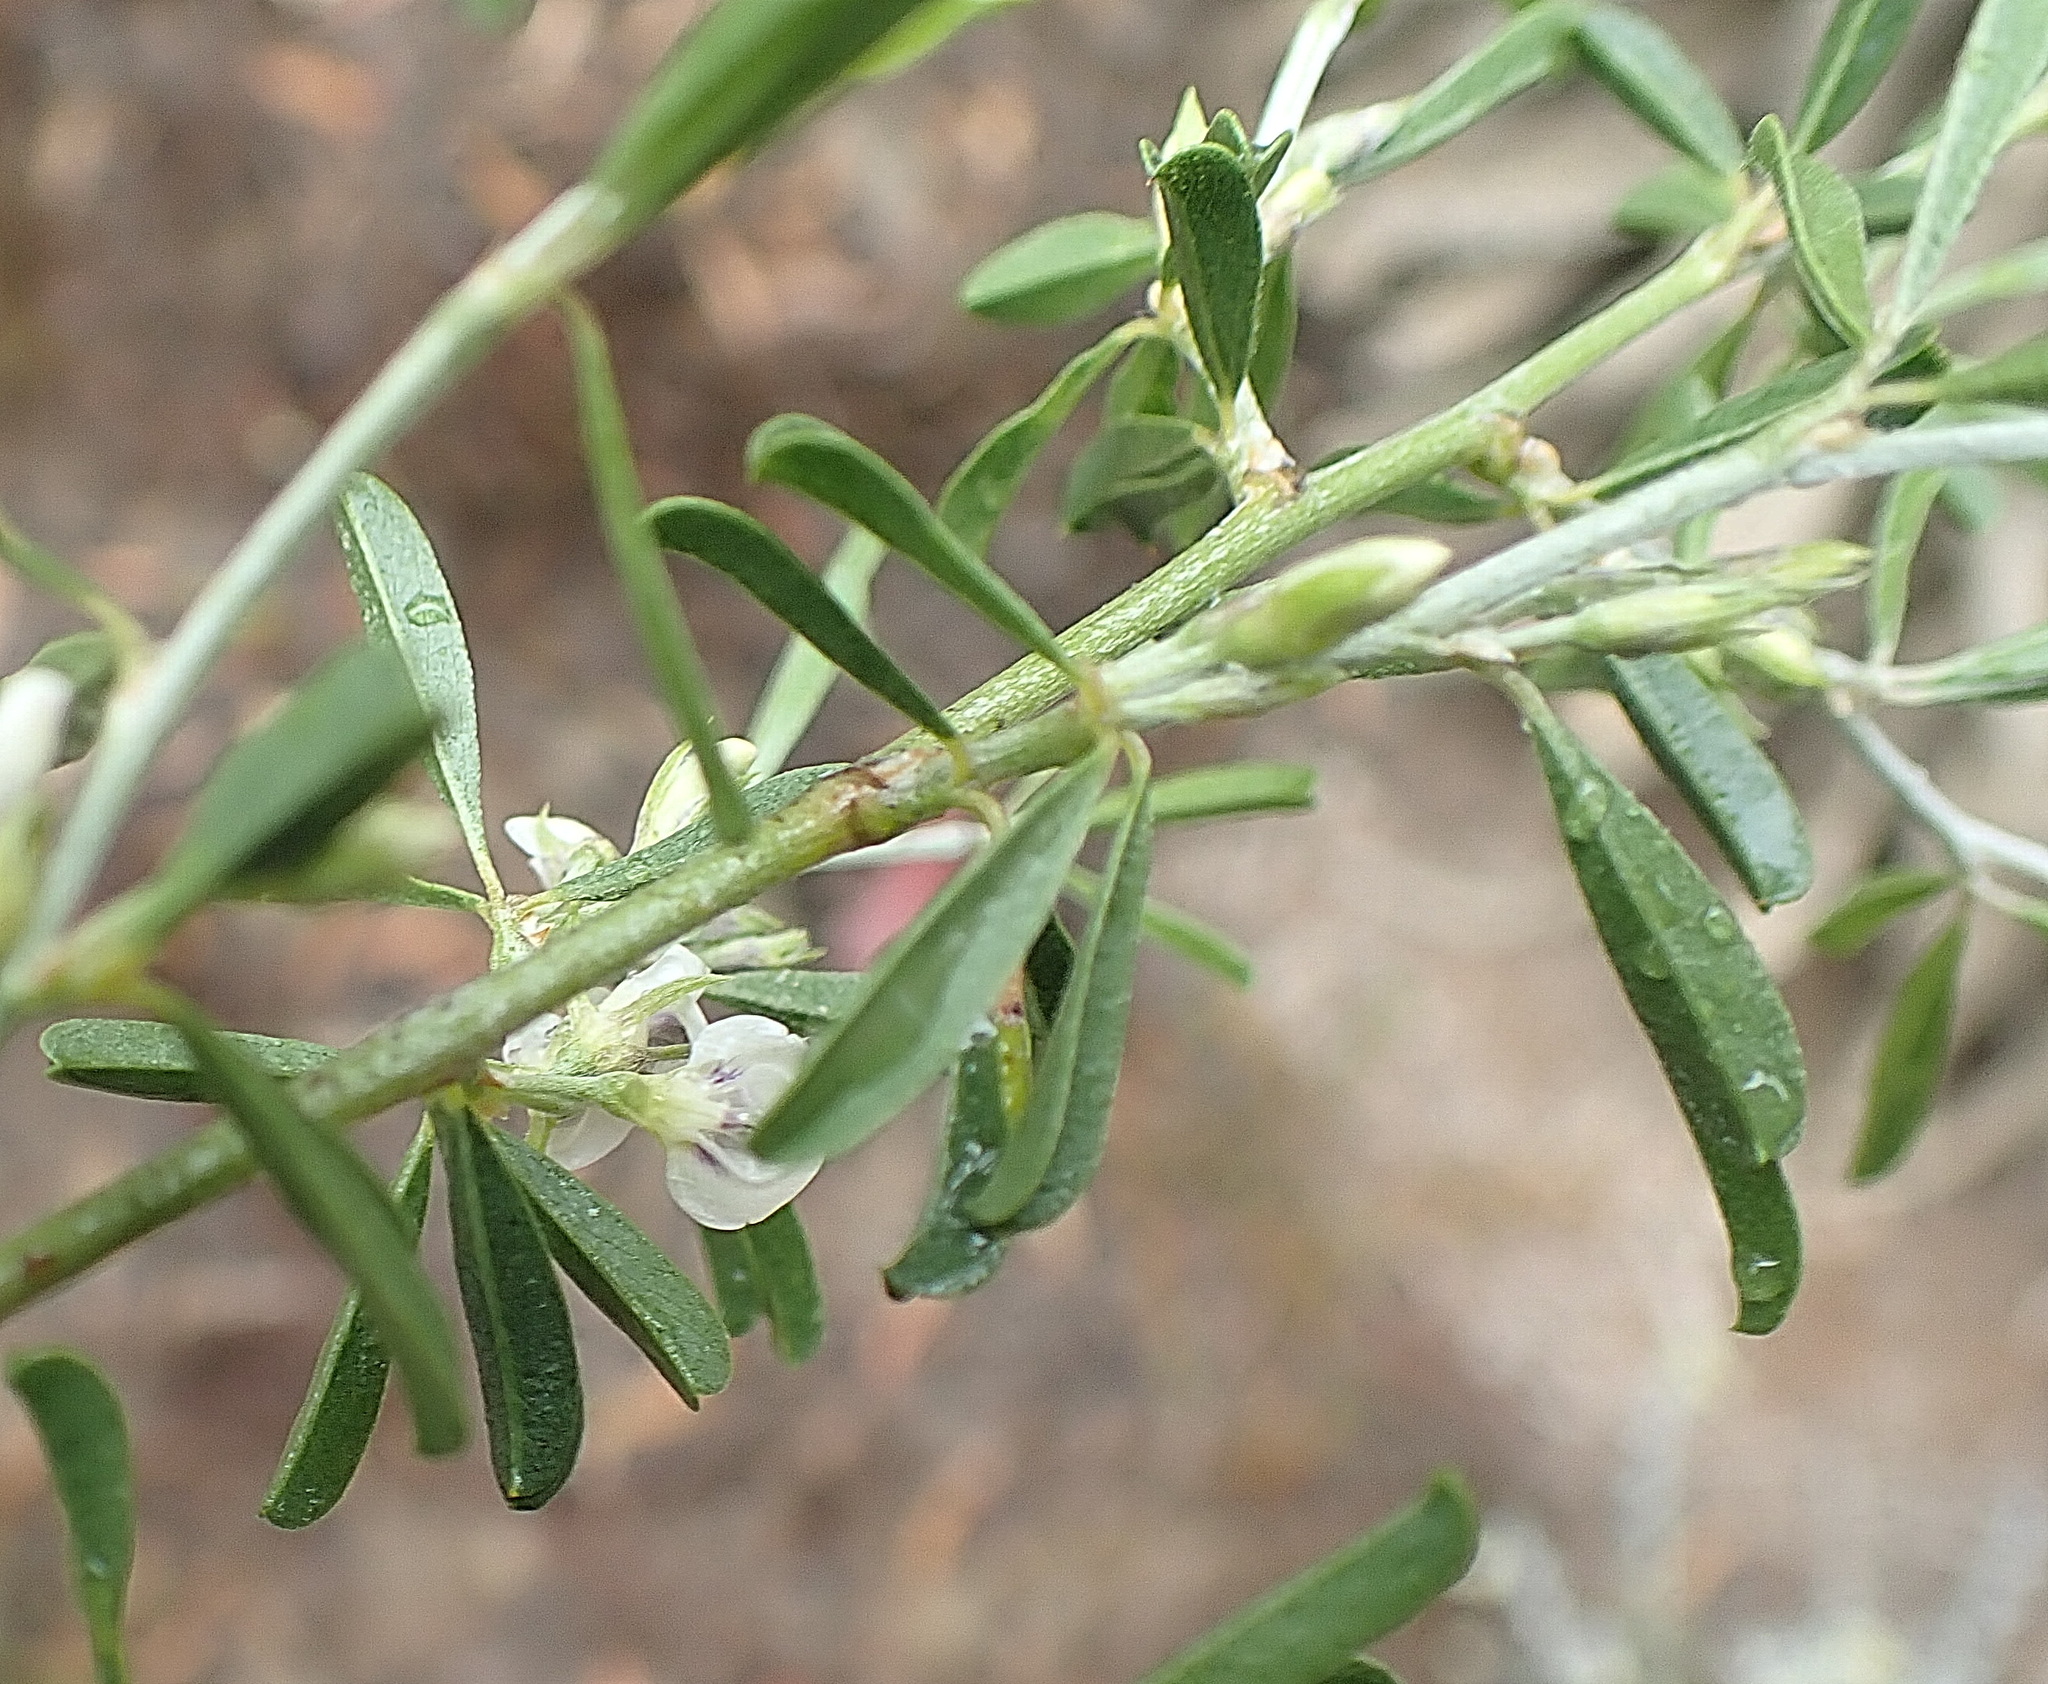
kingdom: Plantae
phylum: Tracheophyta
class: Magnoliopsida
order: Fabales
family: Fabaceae
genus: Psoralea
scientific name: Psoralea candicans
